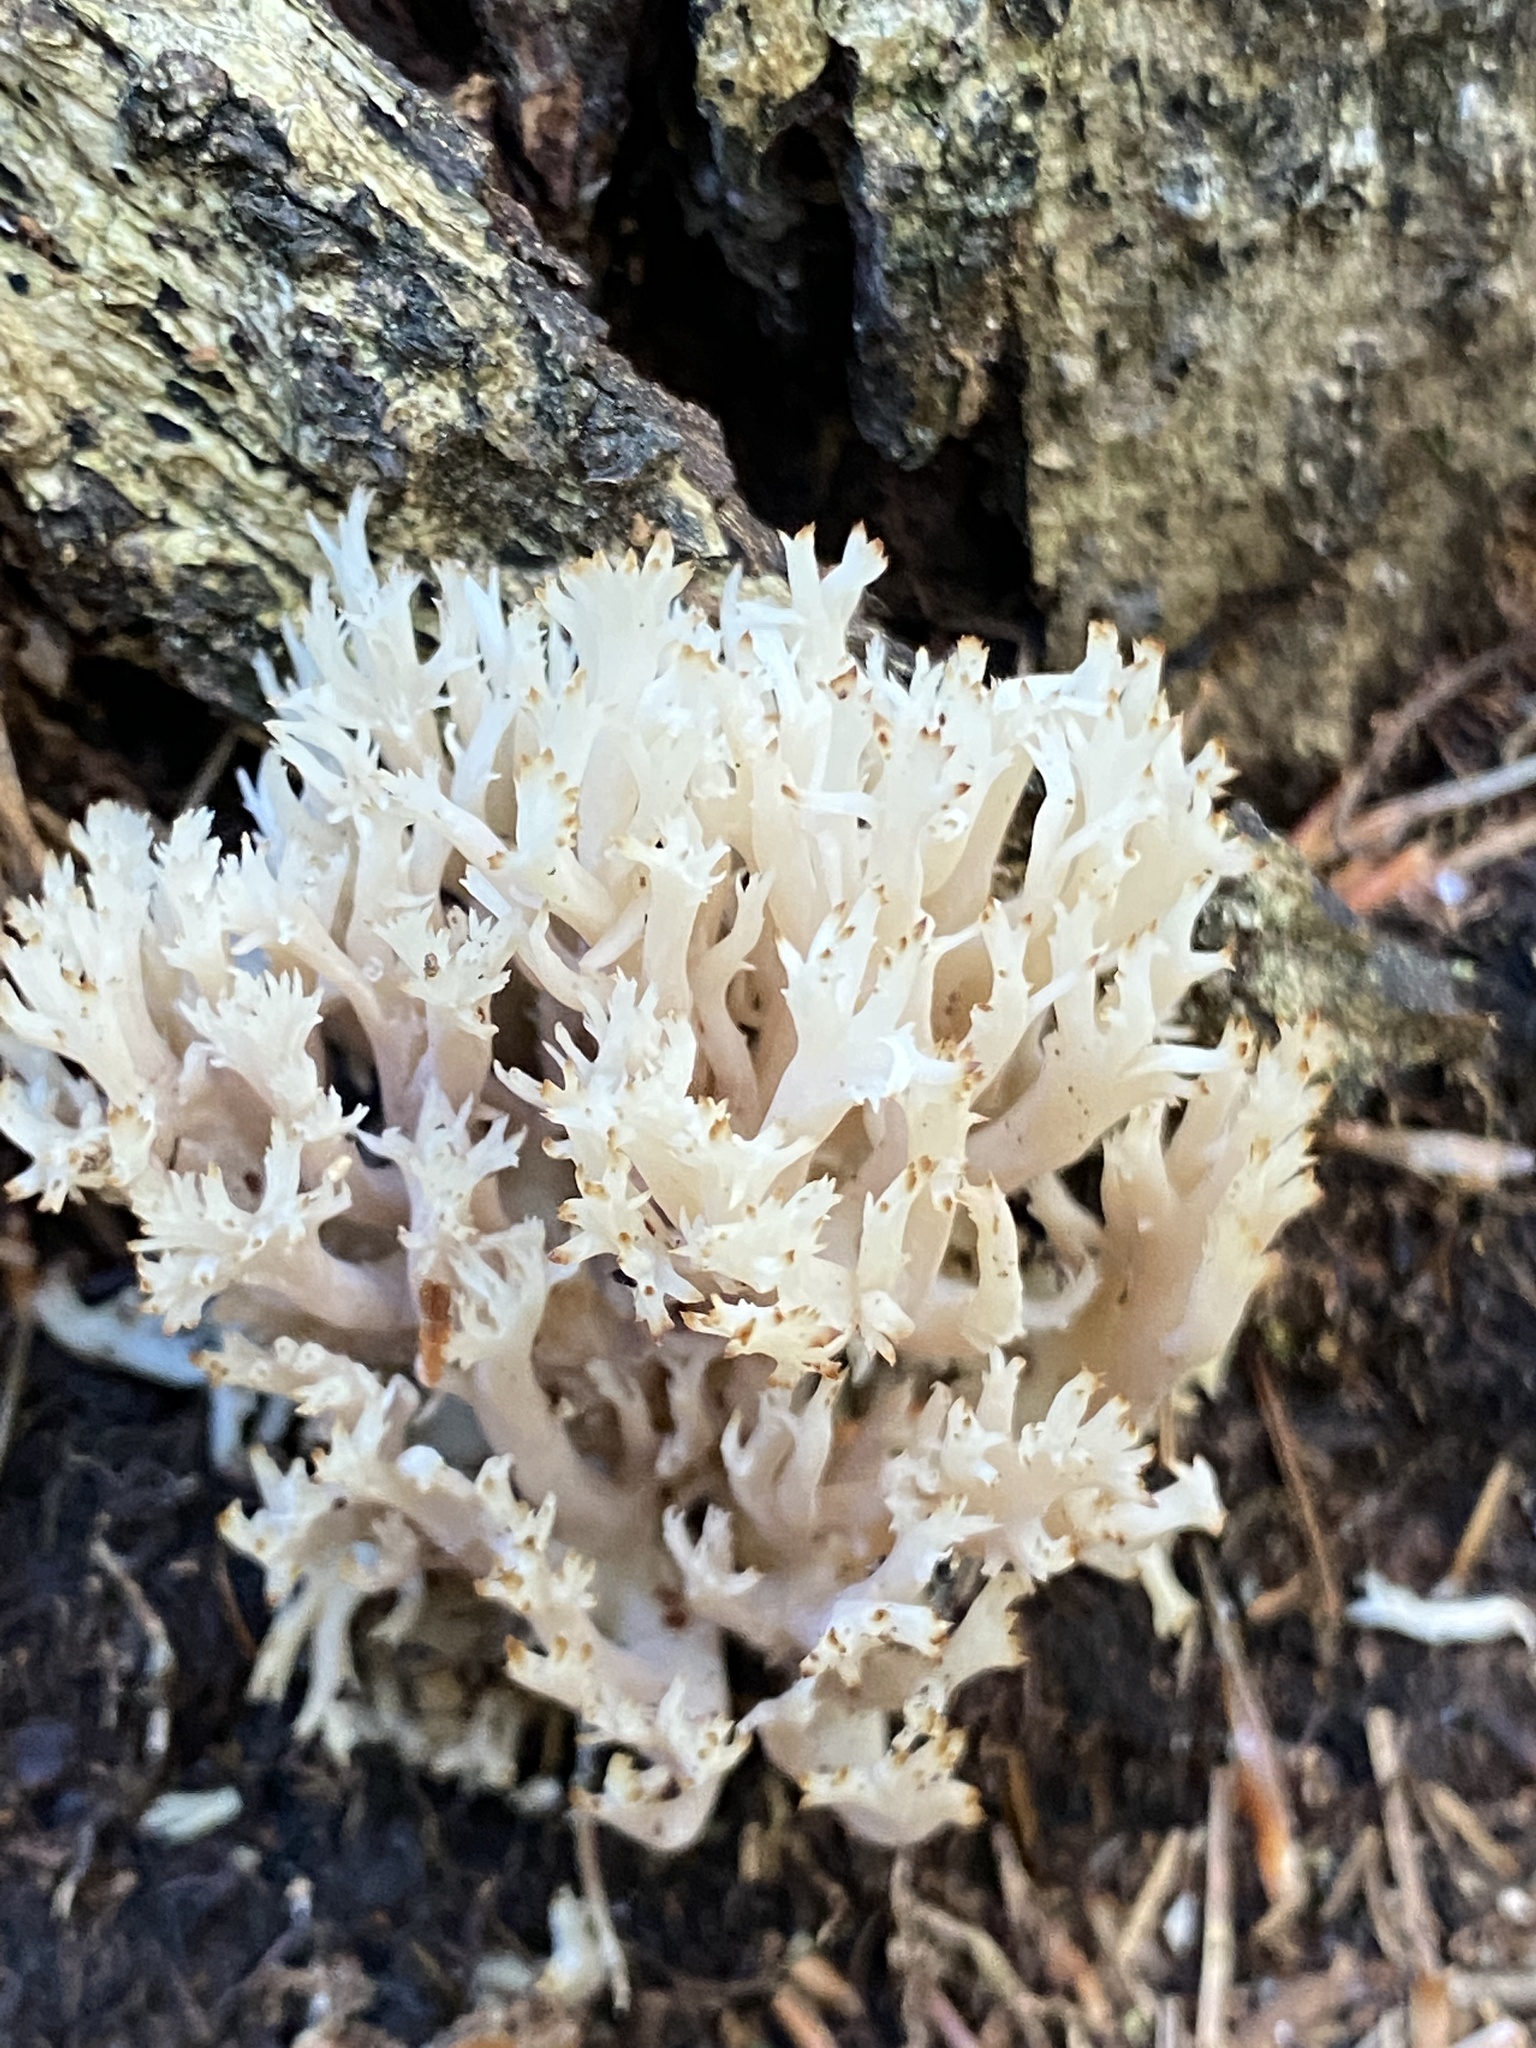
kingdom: Fungi
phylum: Basidiomycota
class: Agaricomycetes
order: Cantharellales
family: Hydnaceae
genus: Clavulina
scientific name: Clavulina coralloides
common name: Crested coral
